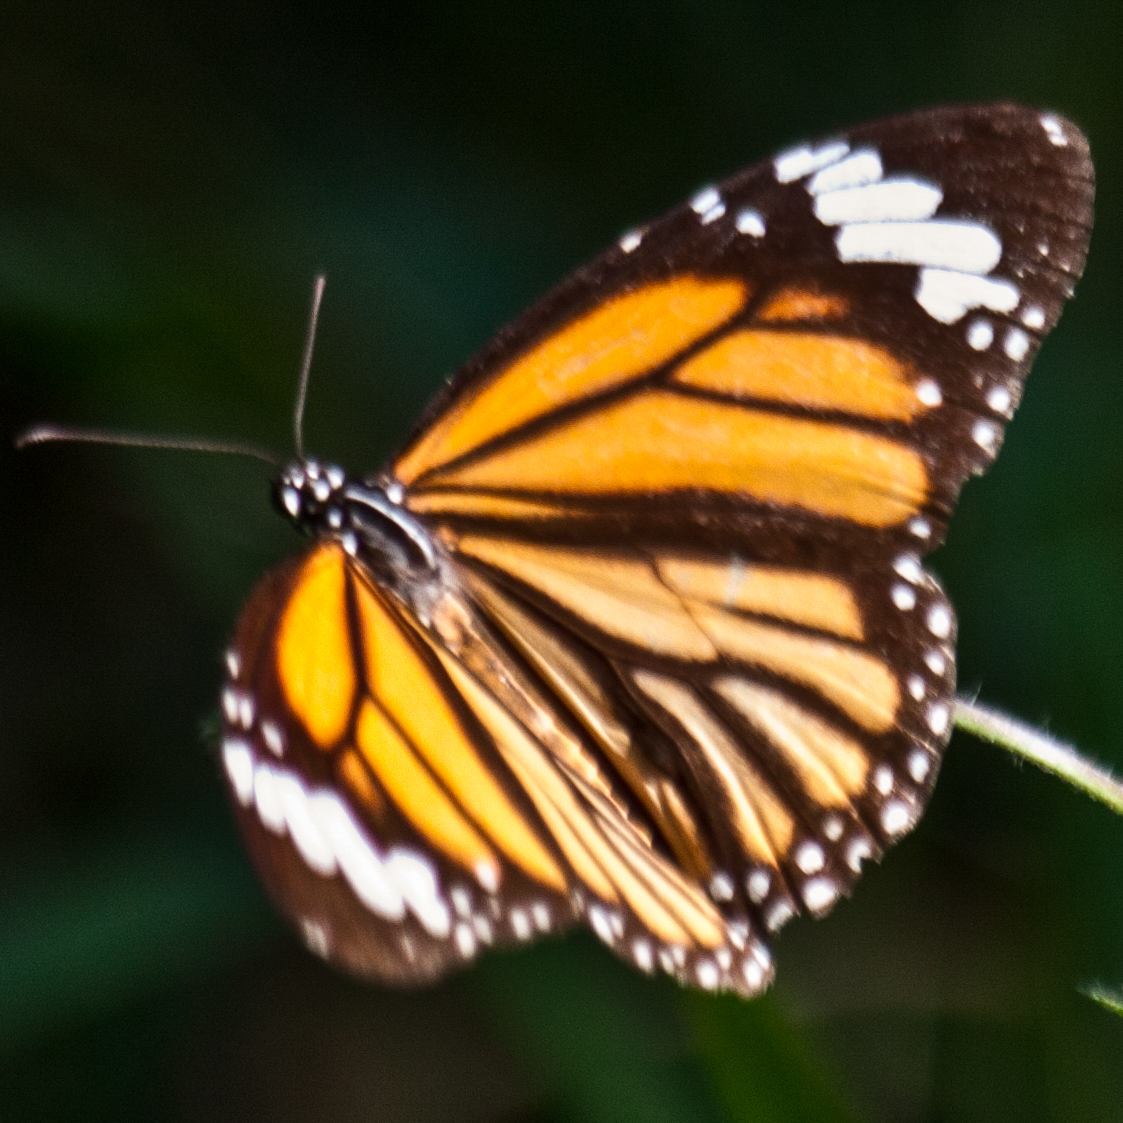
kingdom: Animalia
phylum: Arthropoda
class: Insecta
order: Lepidoptera
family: Nymphalidae
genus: Danaus
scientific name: Danaus genutia
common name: Common tiger butterfly
